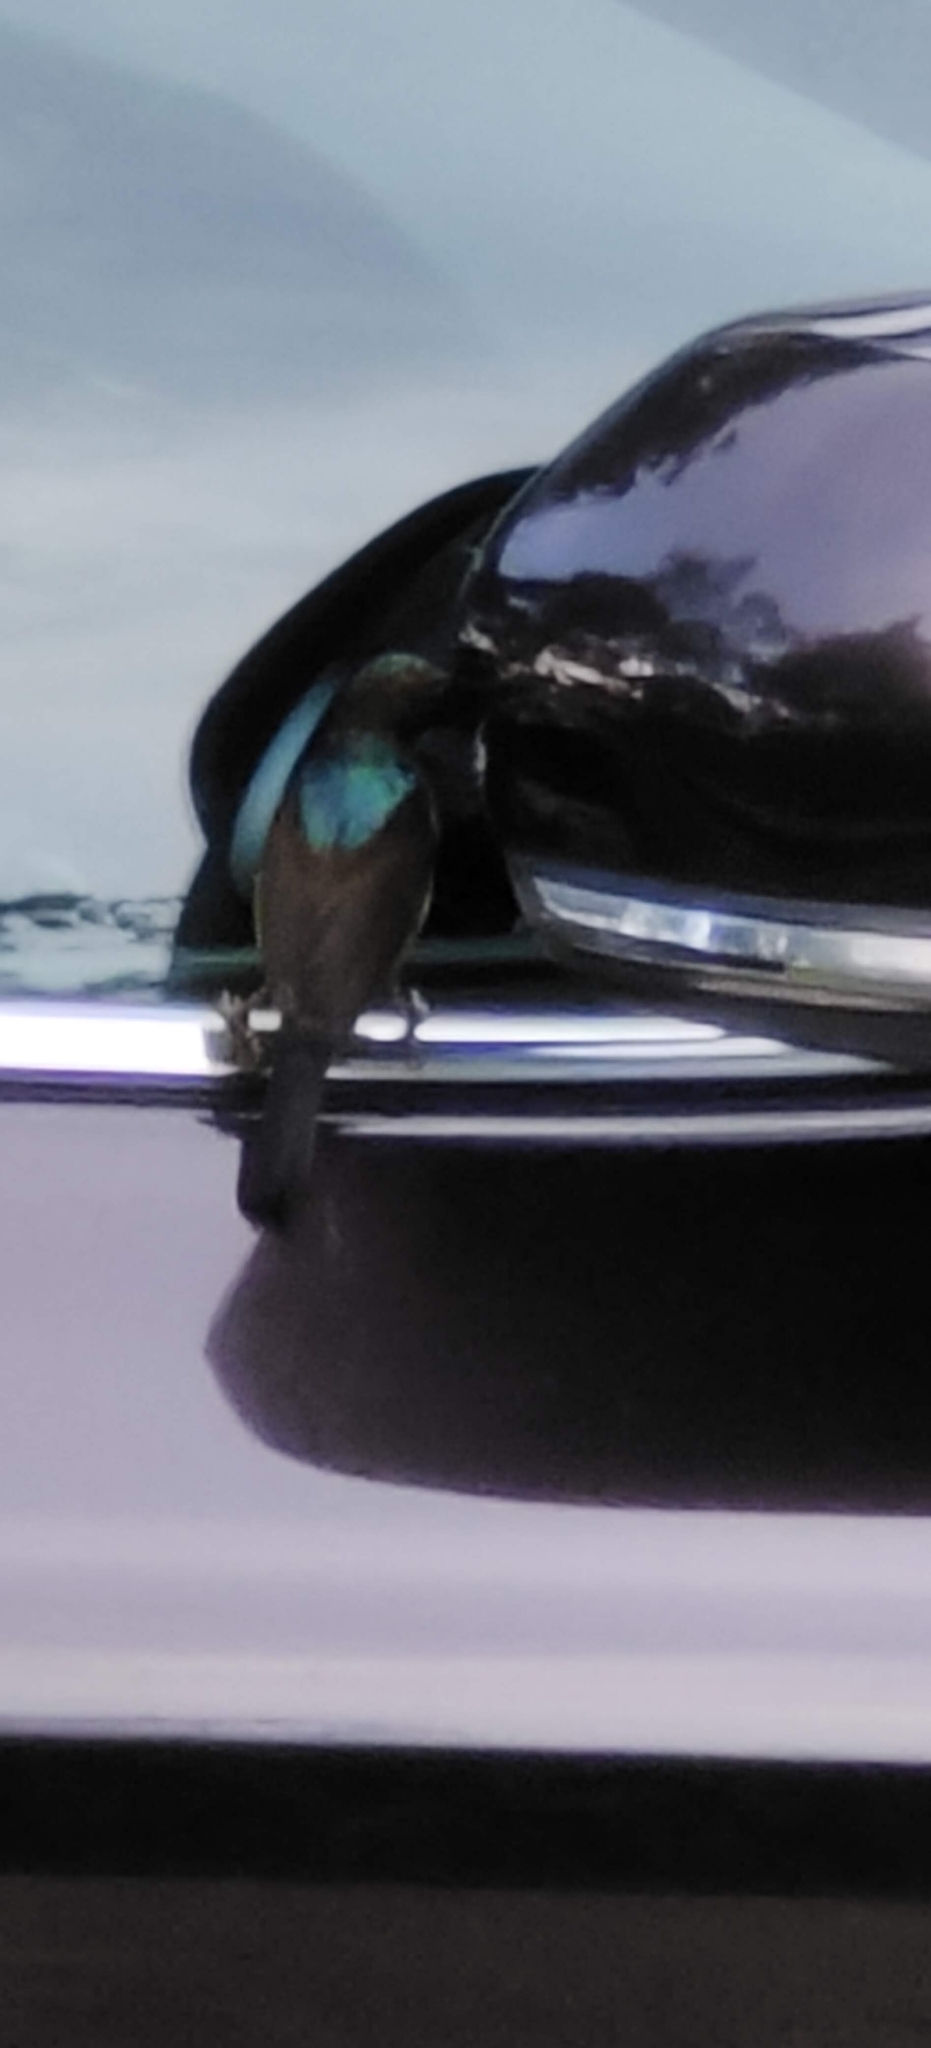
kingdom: Animalia
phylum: Chordata
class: Aves
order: Passeriformes
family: Nectariniidae
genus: Anthreptes
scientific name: Anthreptes malacensis
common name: Brown-throated sunbird
